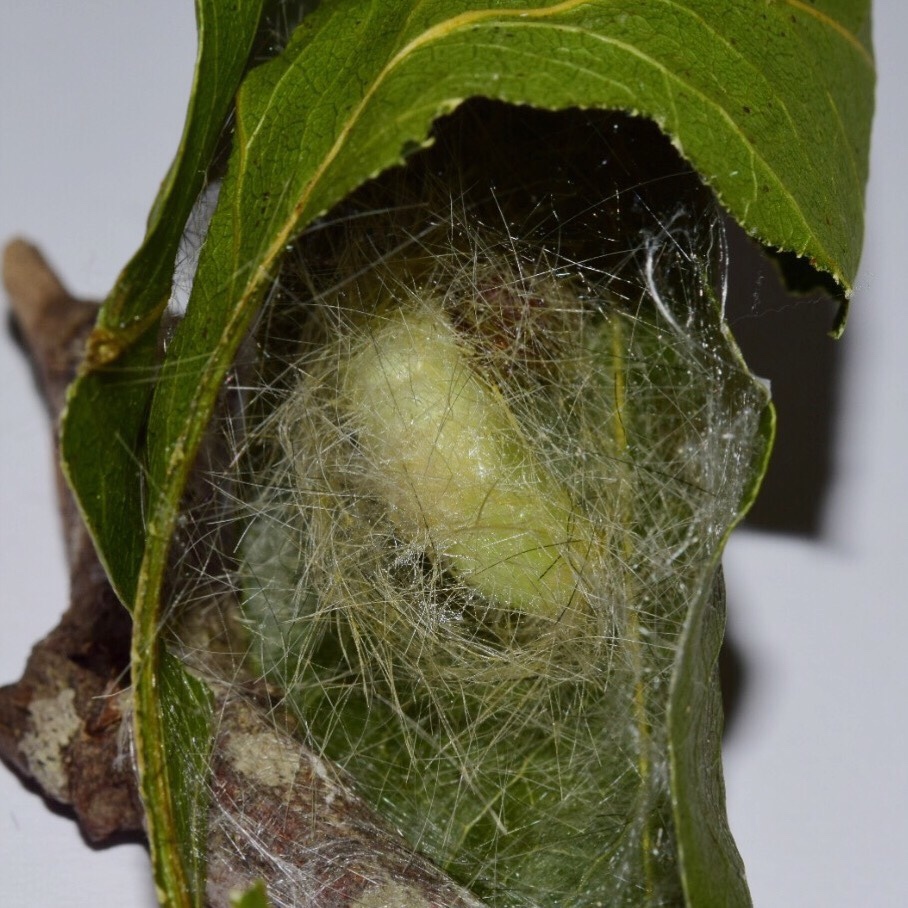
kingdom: Animalia
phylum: Arthropoda
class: Insecta
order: Lepidoptera
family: Erebidae
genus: Dasychira
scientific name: Dasychira georgiana
